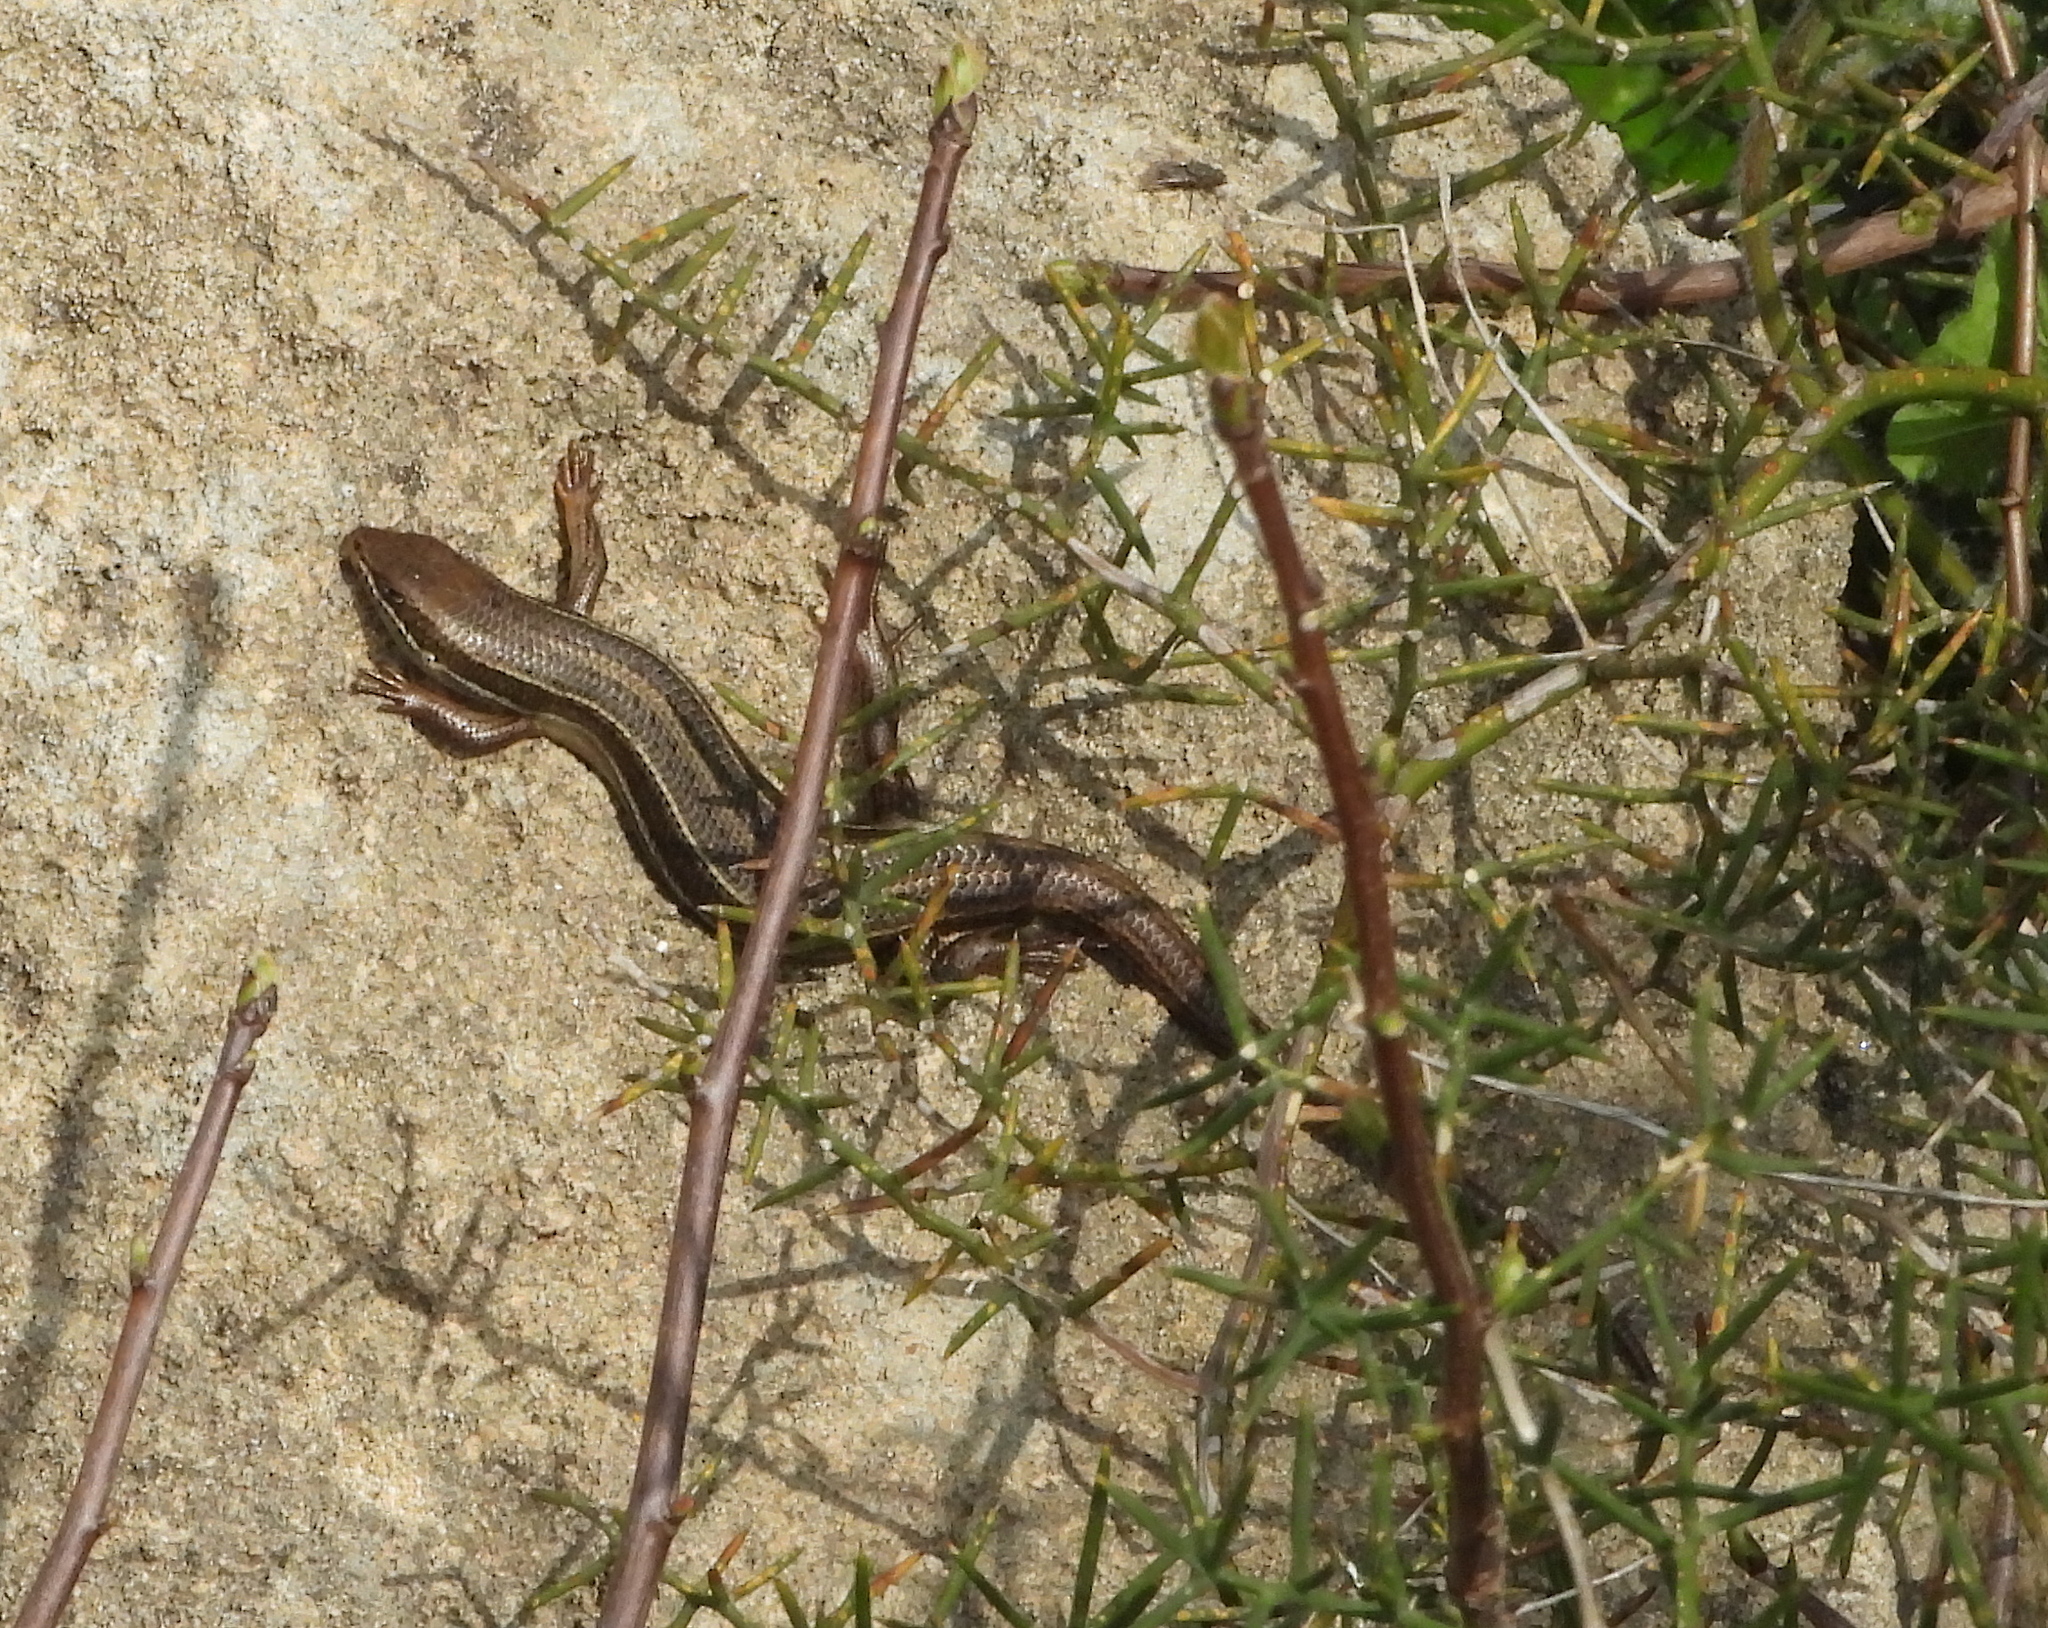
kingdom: Animalia
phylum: Chordata
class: Squamata
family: Scincidae
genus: Heremites
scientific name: Heremites vittatus
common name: Bridled mabuya
